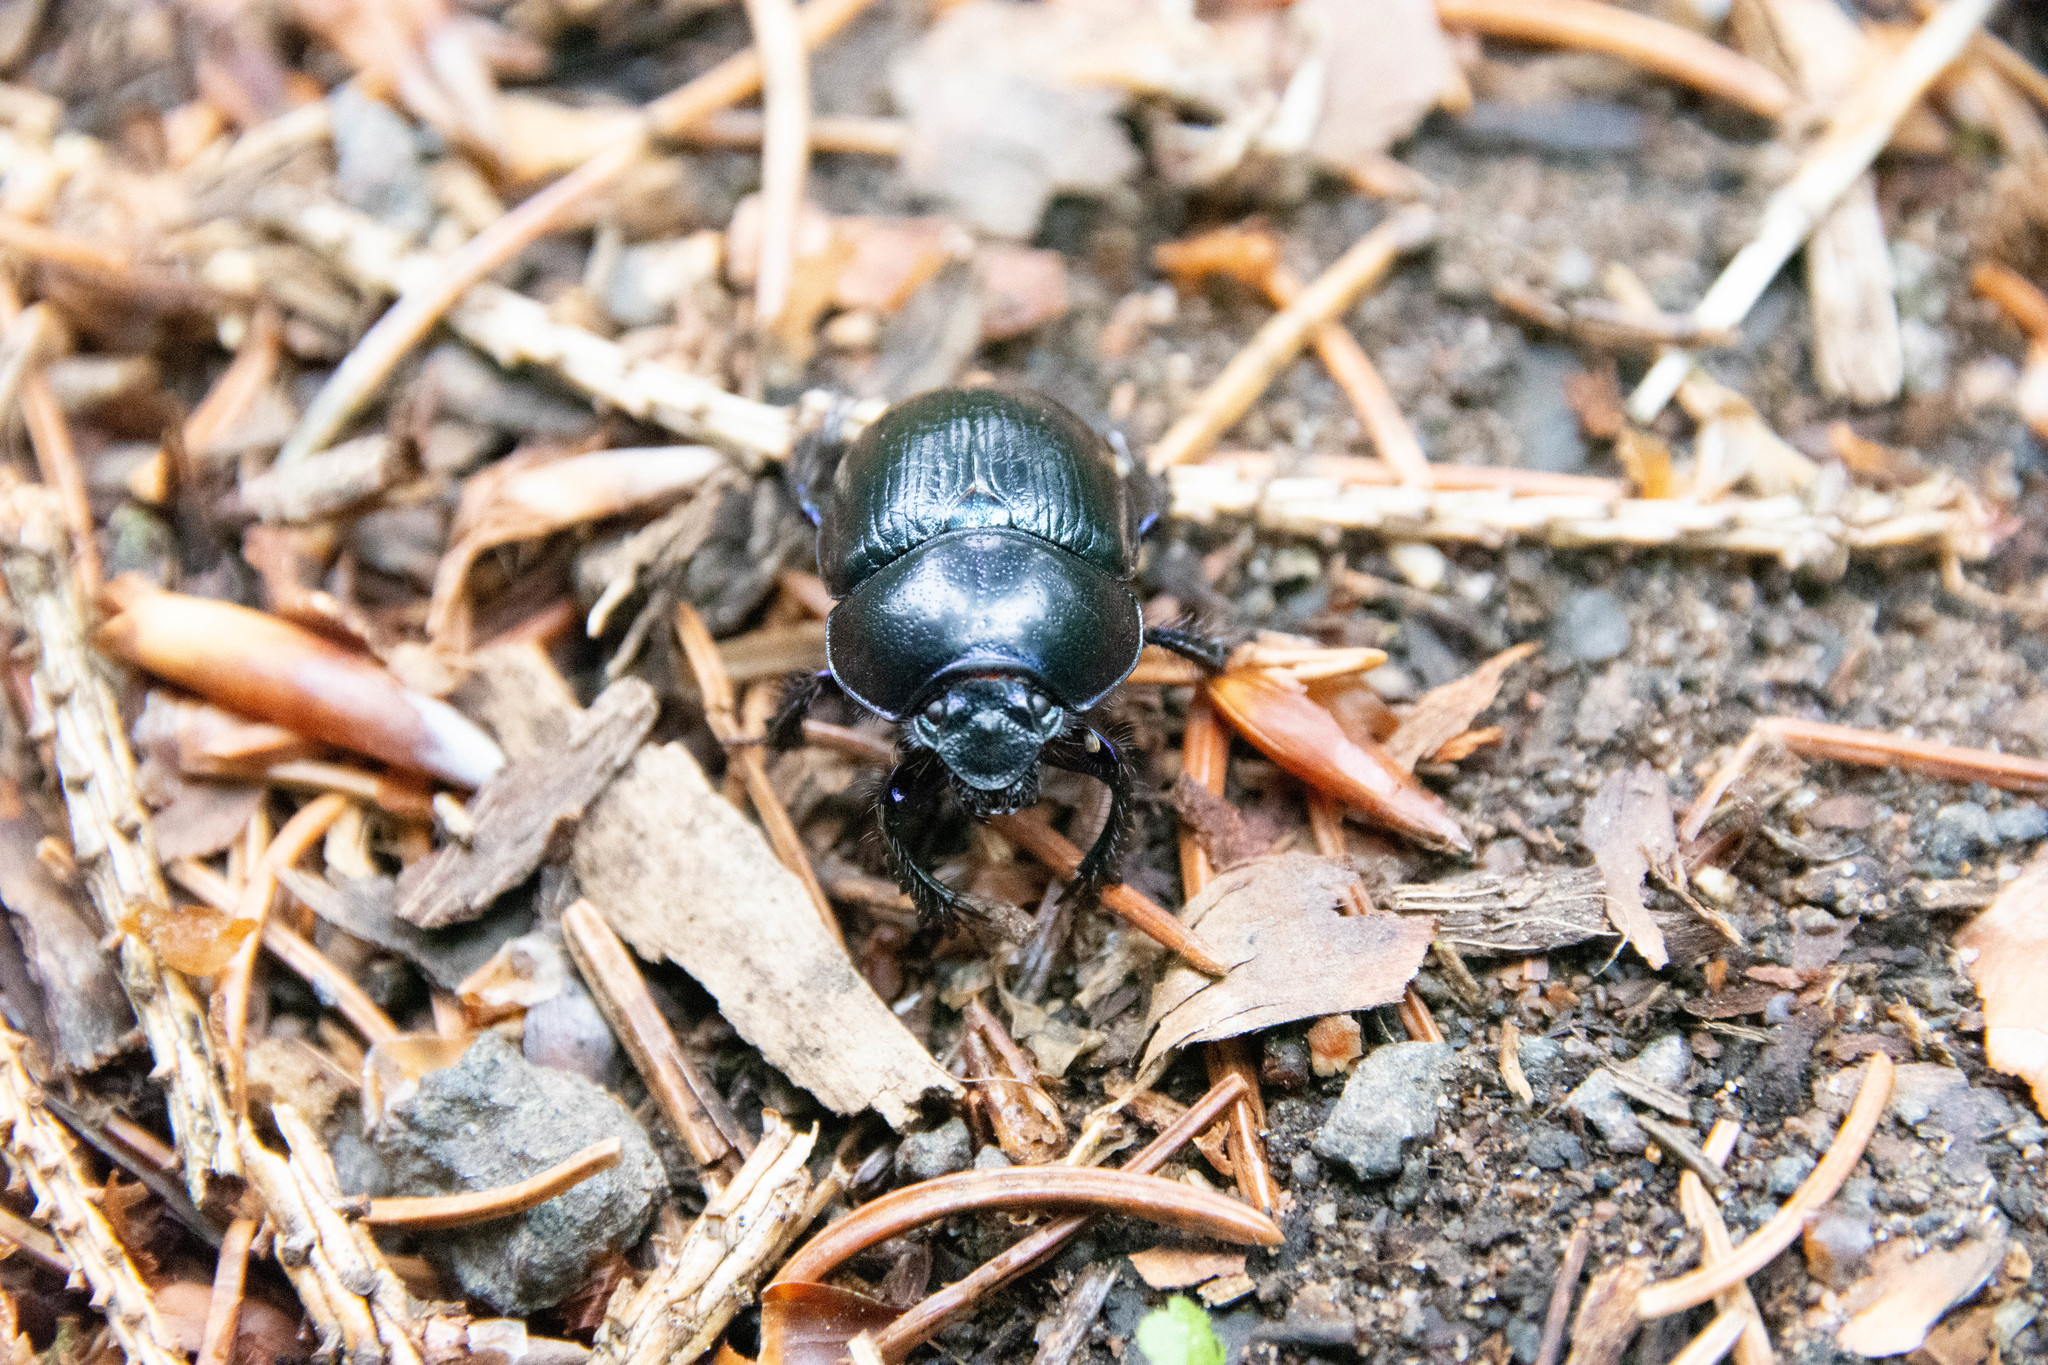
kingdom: Animalia
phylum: Arthropoda
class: Insecta
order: Coleoptera
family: Geotrupidae
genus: Anoplotrupes
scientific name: Anoplotrupes stercorosus
